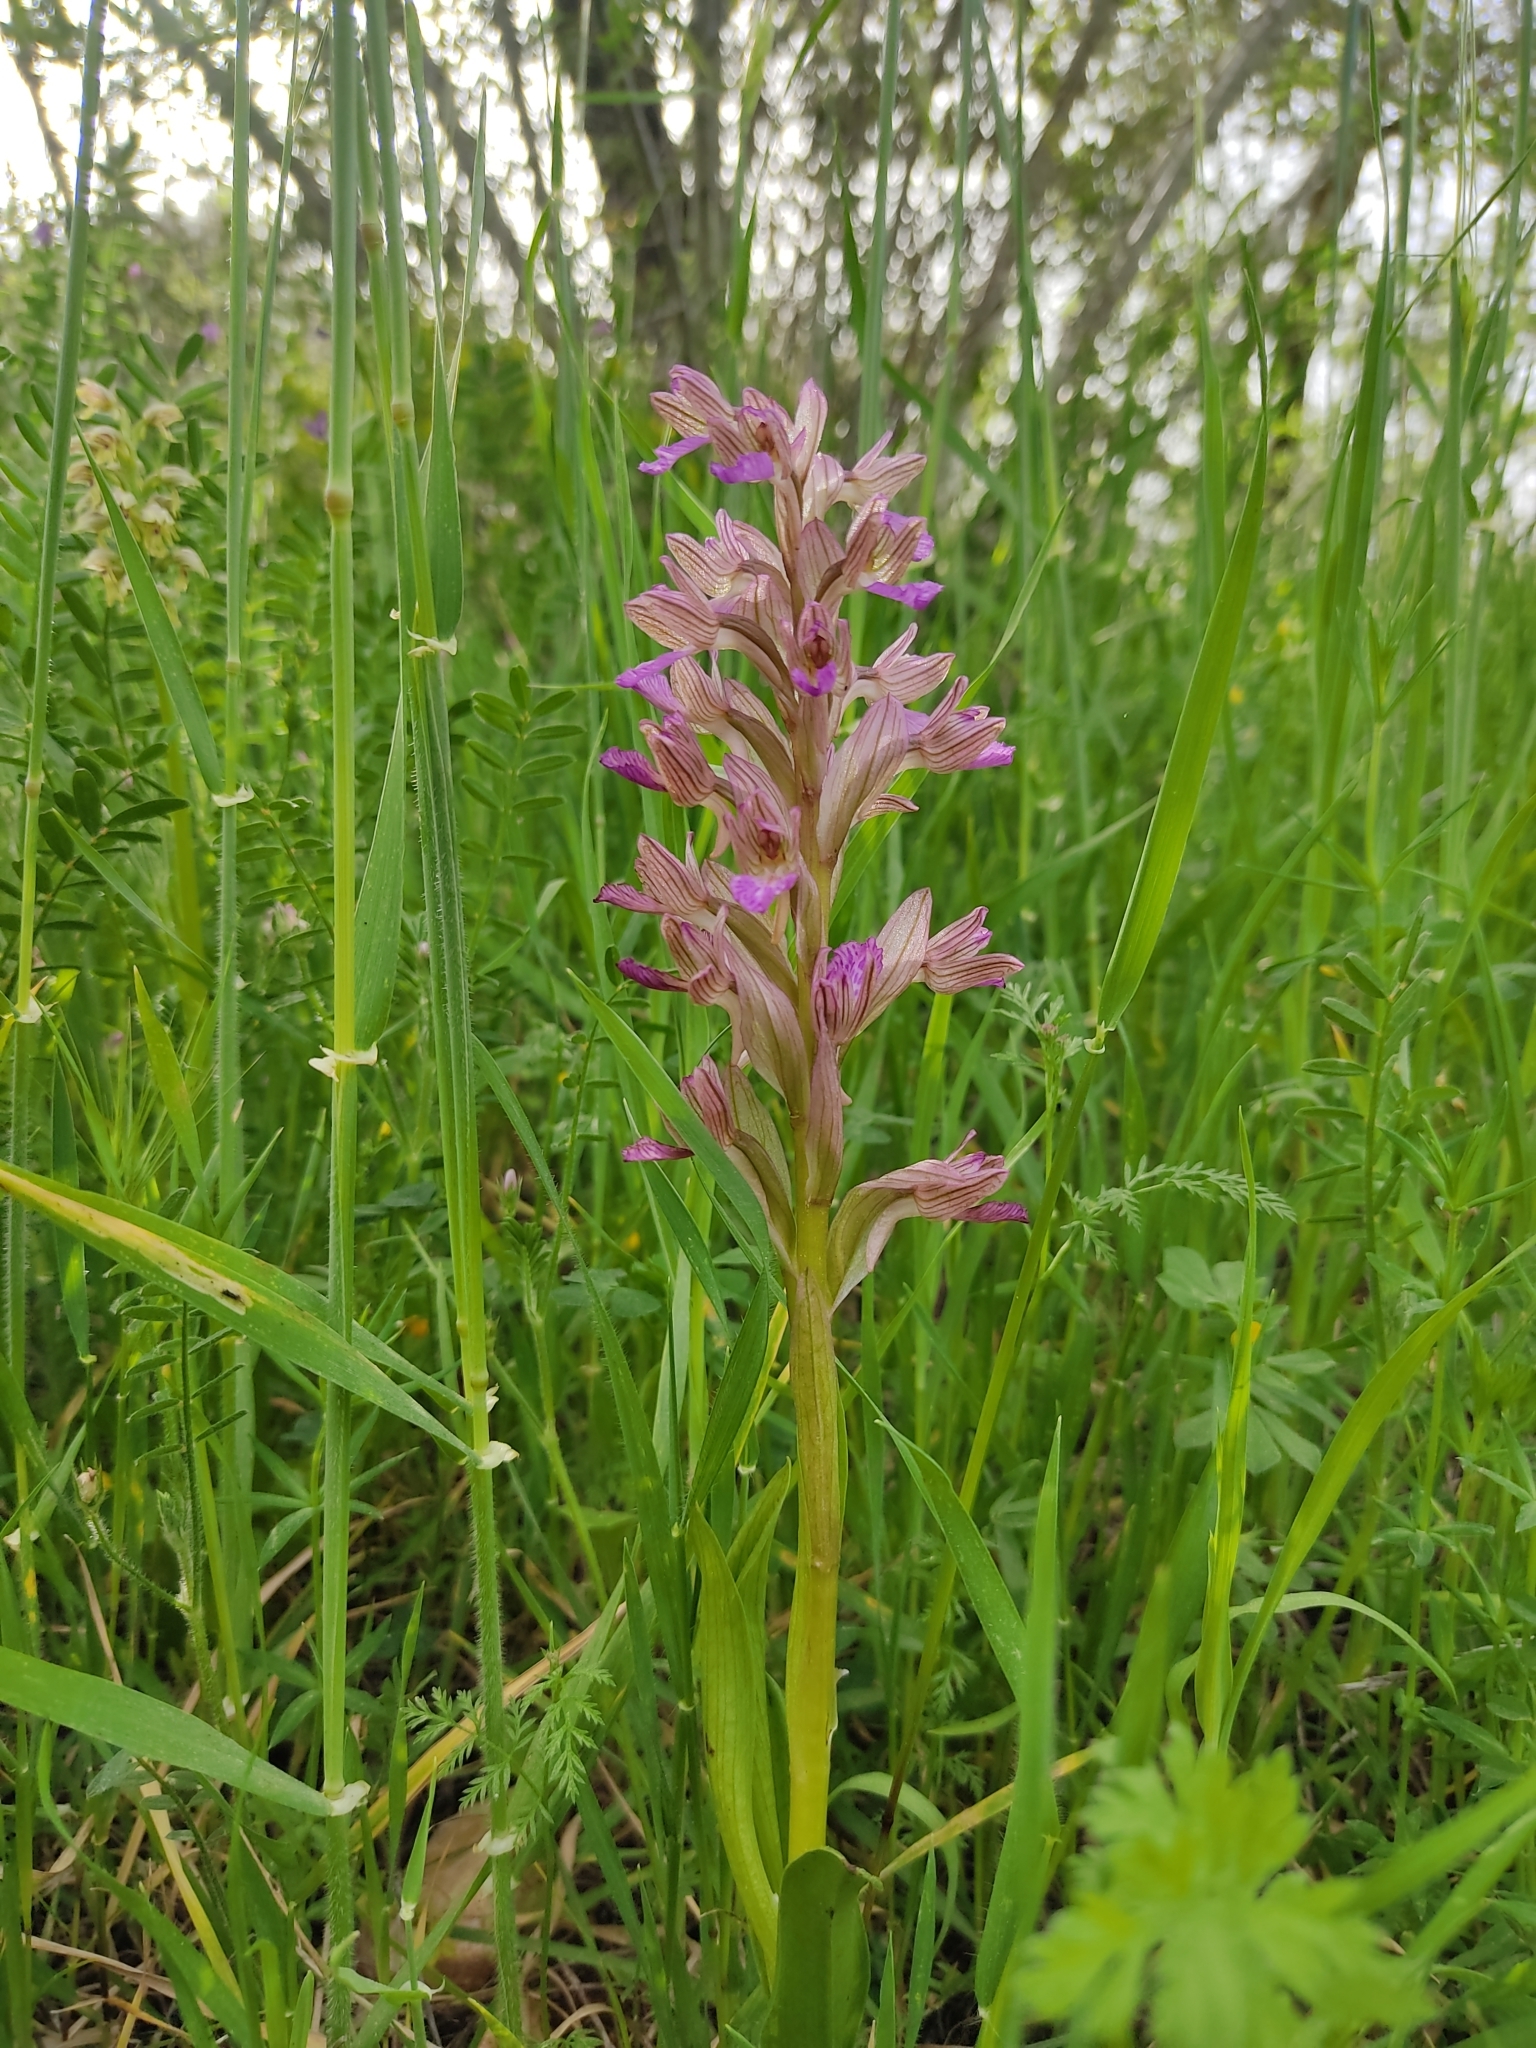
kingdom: Plantae
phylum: Tracheophyta
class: Liliopsida
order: Asparagales
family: Orchidaceae
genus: Anacamptis
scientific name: Anacamptis papilionacea
